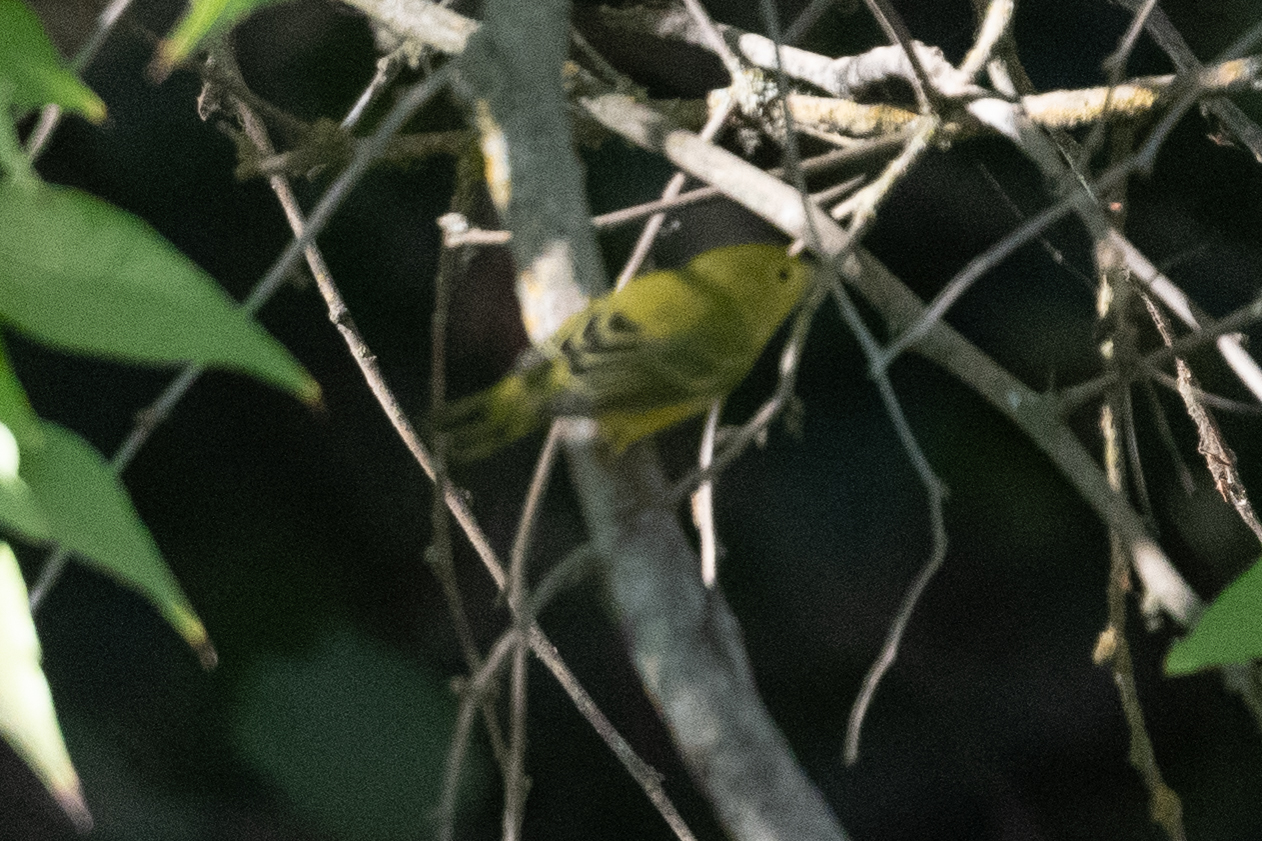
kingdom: Animalia
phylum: Chordata
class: Aves
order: Passeriformes
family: Parulidae
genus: Setophaga
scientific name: Setophaga petechia
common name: Yellow warbler
